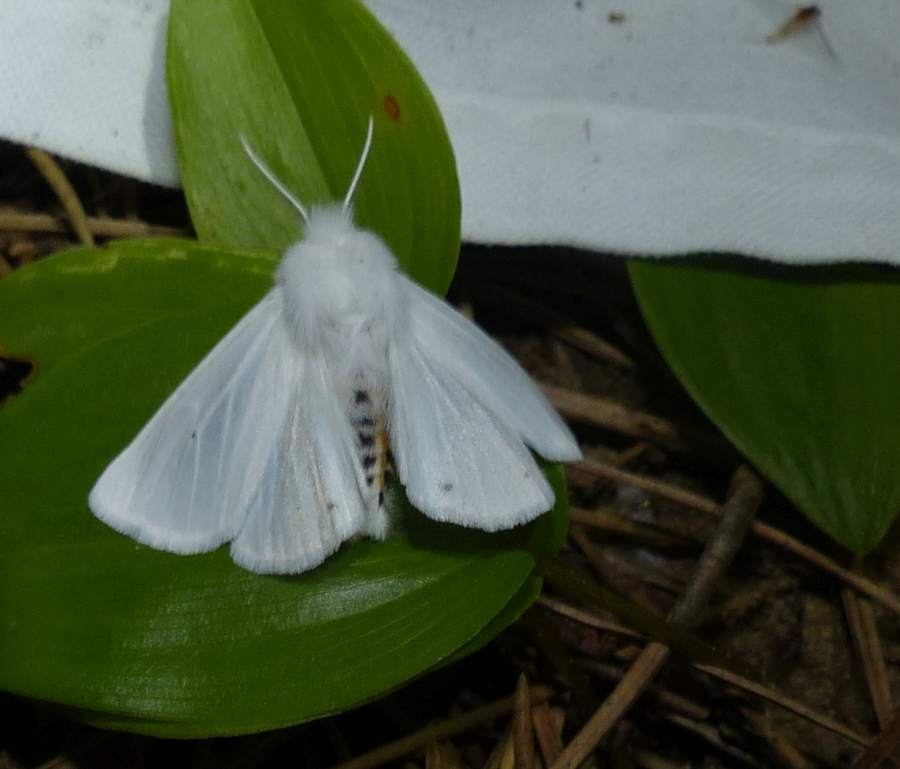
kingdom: Animalia
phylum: Arthropoda
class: Insecta
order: Lepidoptera
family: Erebidae
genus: Spilosoma
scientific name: Spilosoma virginica
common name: Virginia tiger moth
